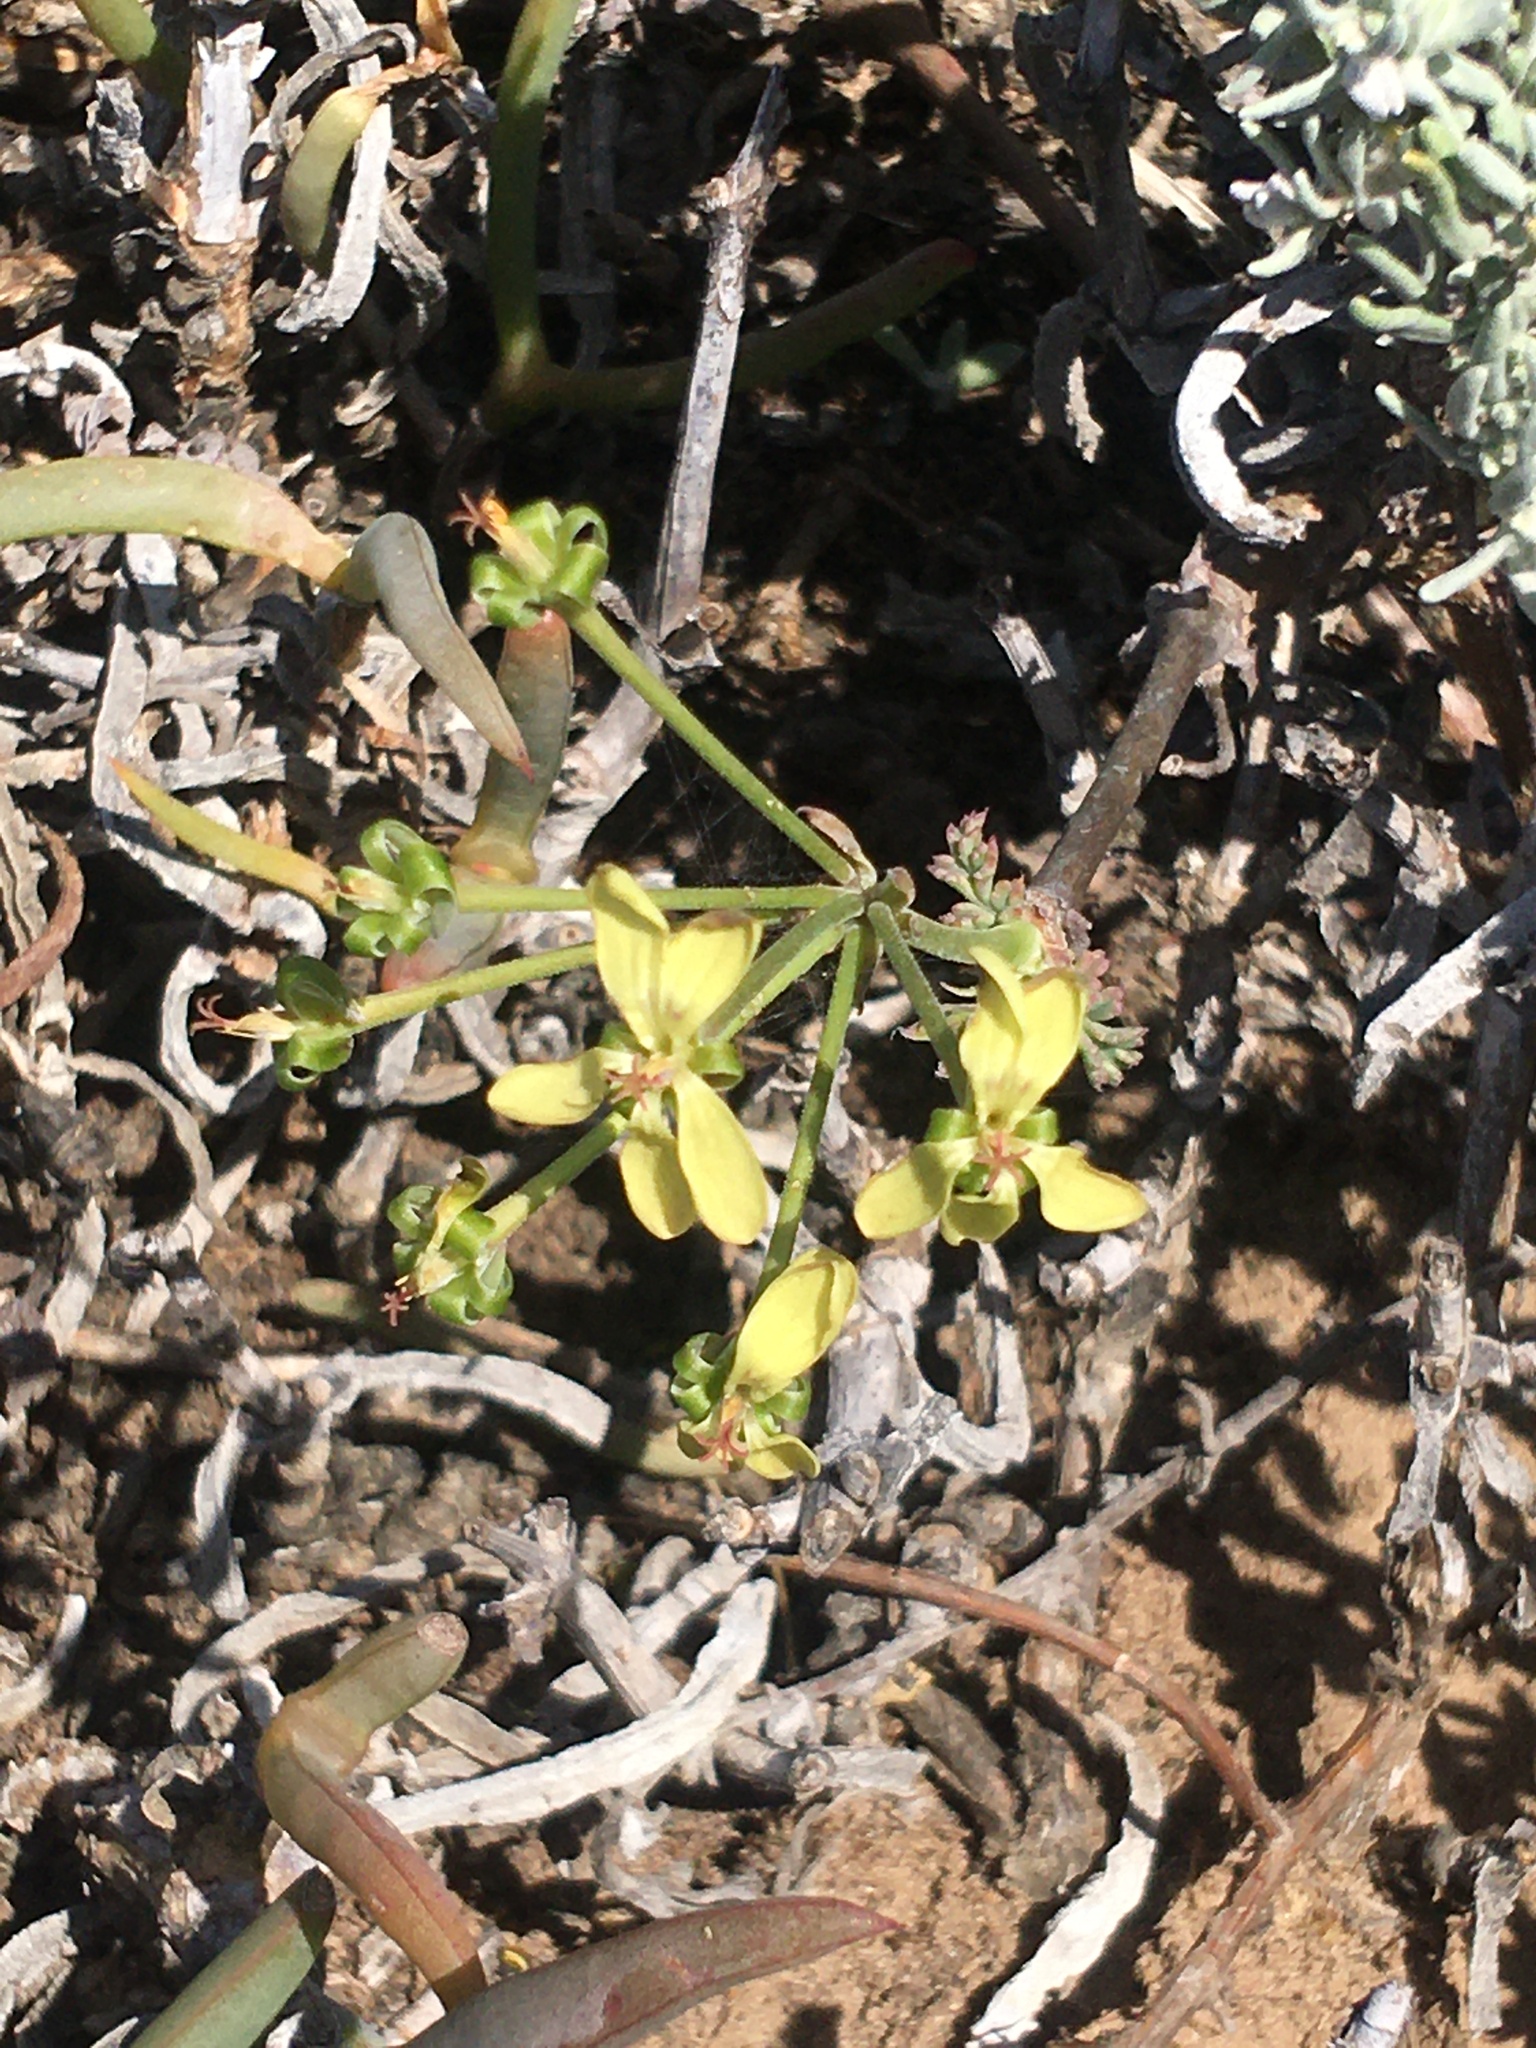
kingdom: Plantae
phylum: Tracheophyta
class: Magnoliopsida
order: Geraniales
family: Geraniaceae
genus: Pelargonium
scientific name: Pelargonium gibbosum
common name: Gouty geranium
